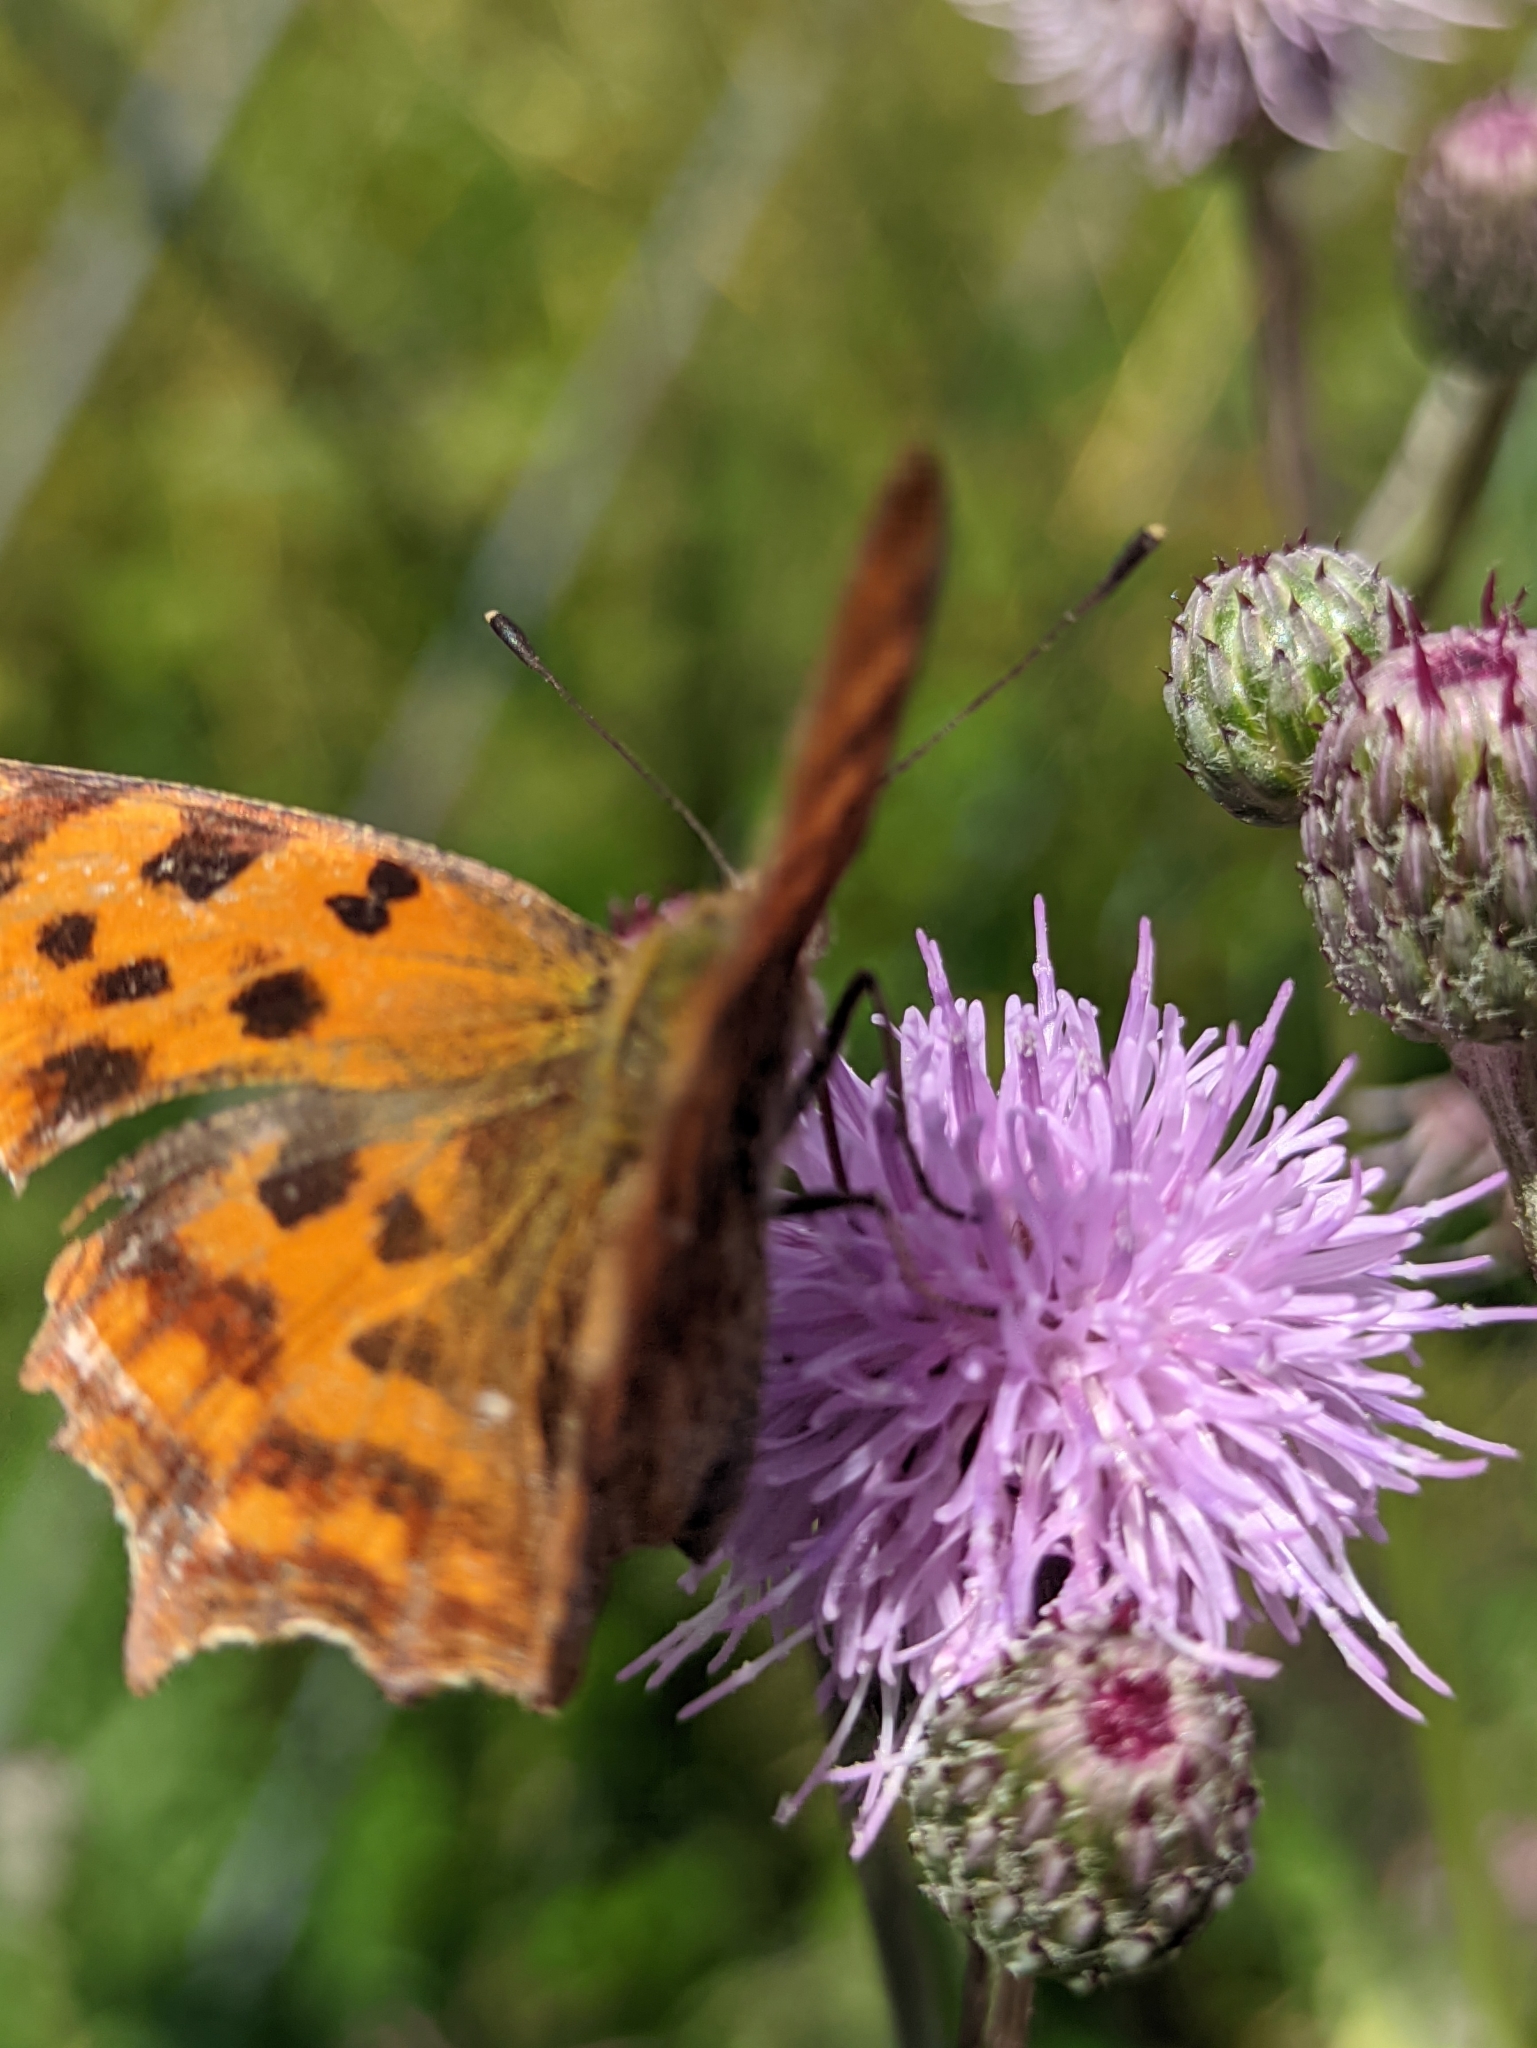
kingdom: Animalia
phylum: Arthropoda
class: Insecta
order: Lepidoptera
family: Nymphalidae
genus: Polygonia
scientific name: Polygonia c-album
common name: Comma
